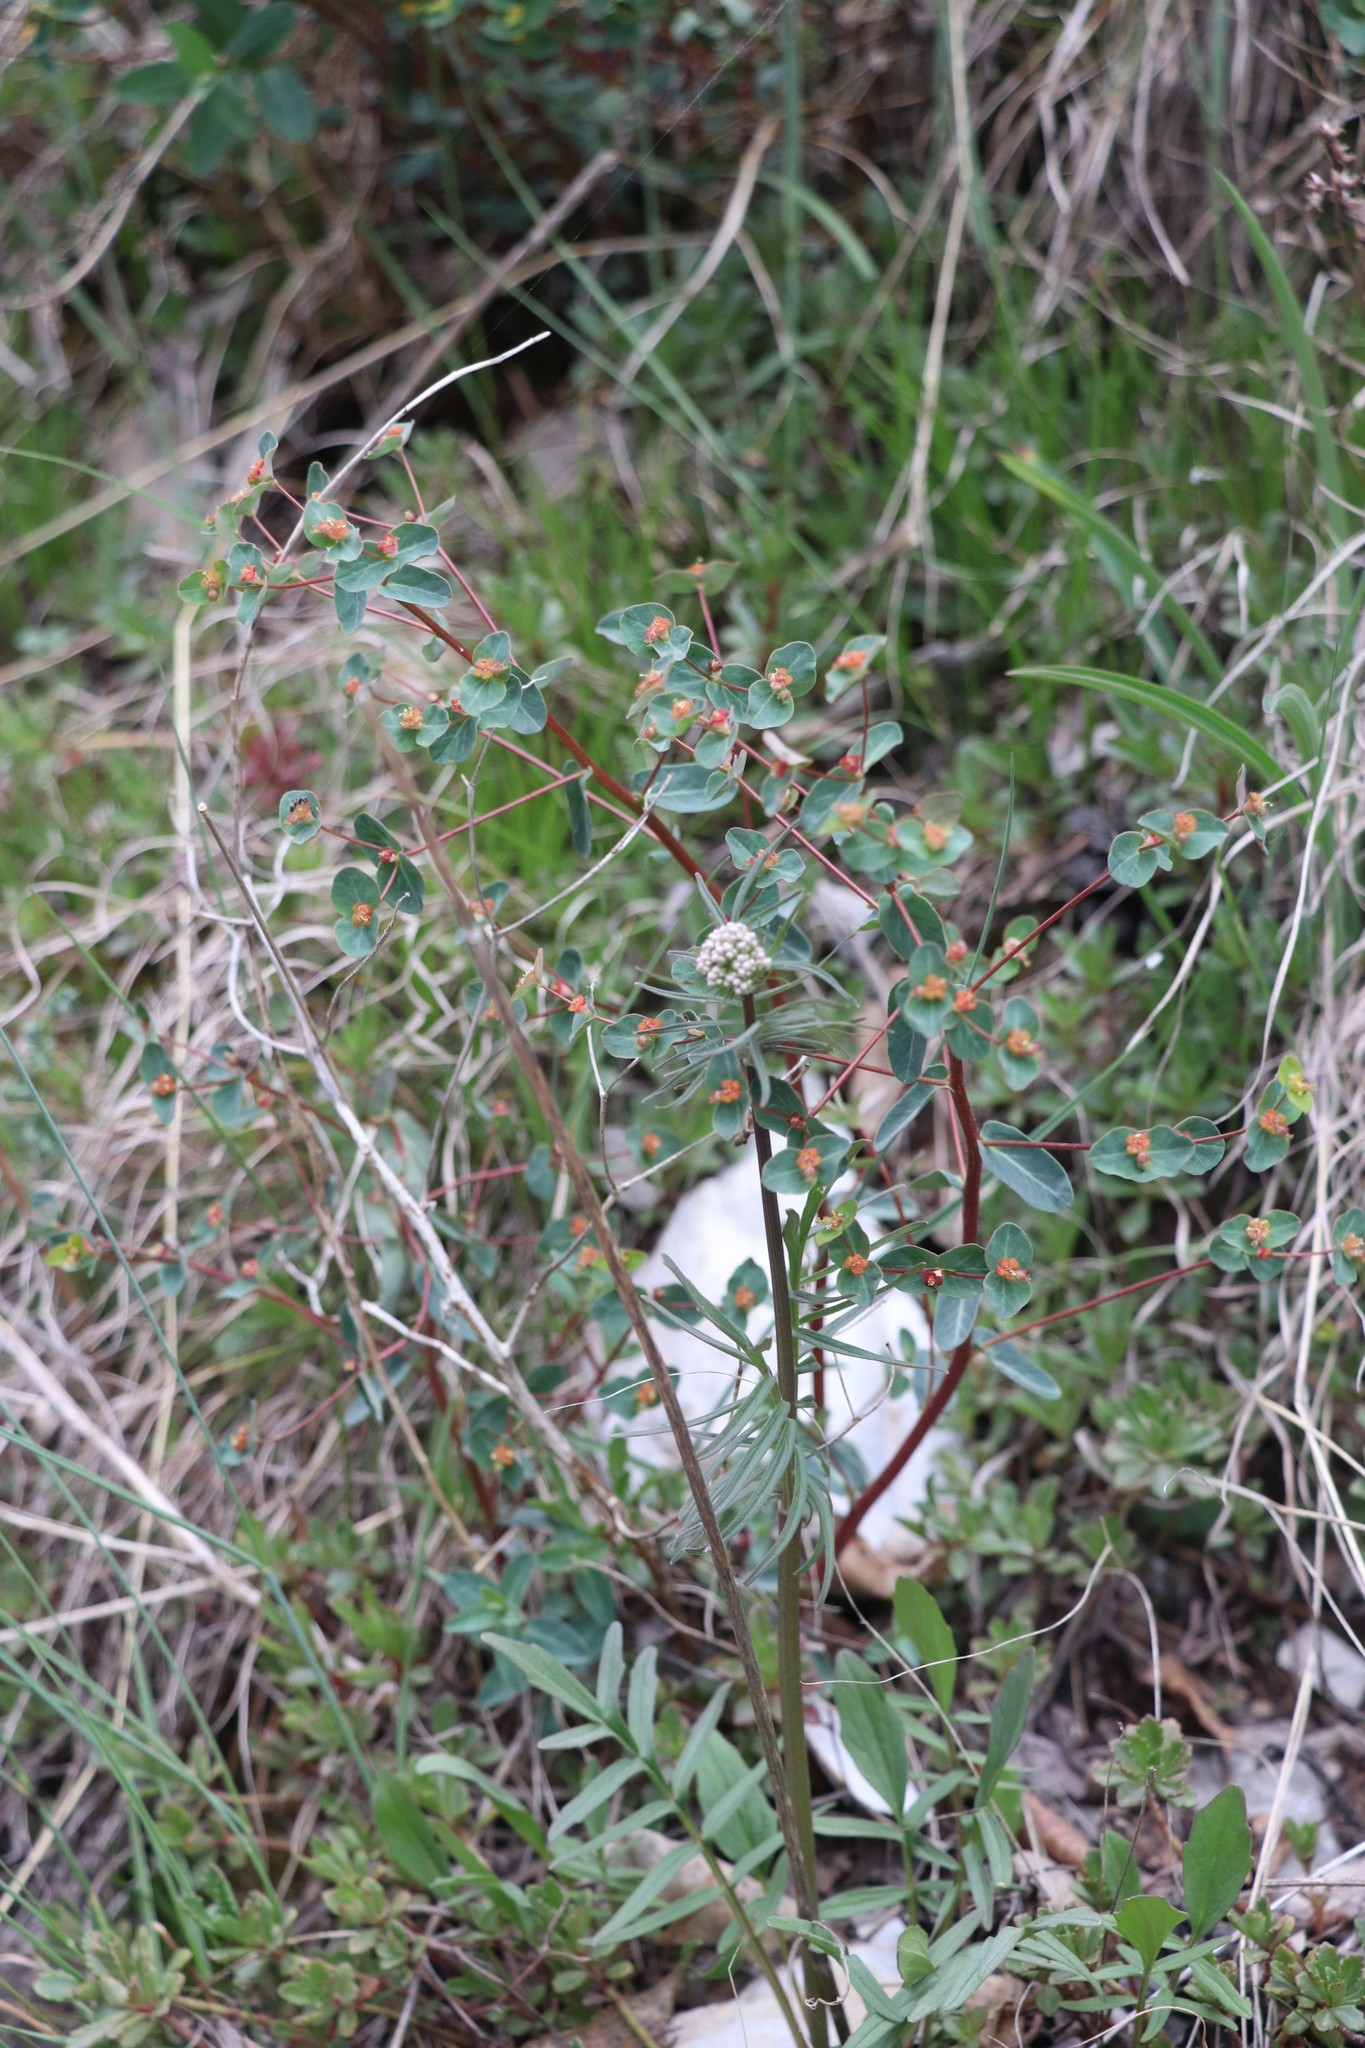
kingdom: Plantae
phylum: Tracheophyta
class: Magnoliopsida
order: Malpighiales
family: Euphorbiaceae
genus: Euphorbia
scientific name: Euphorbia alpina
